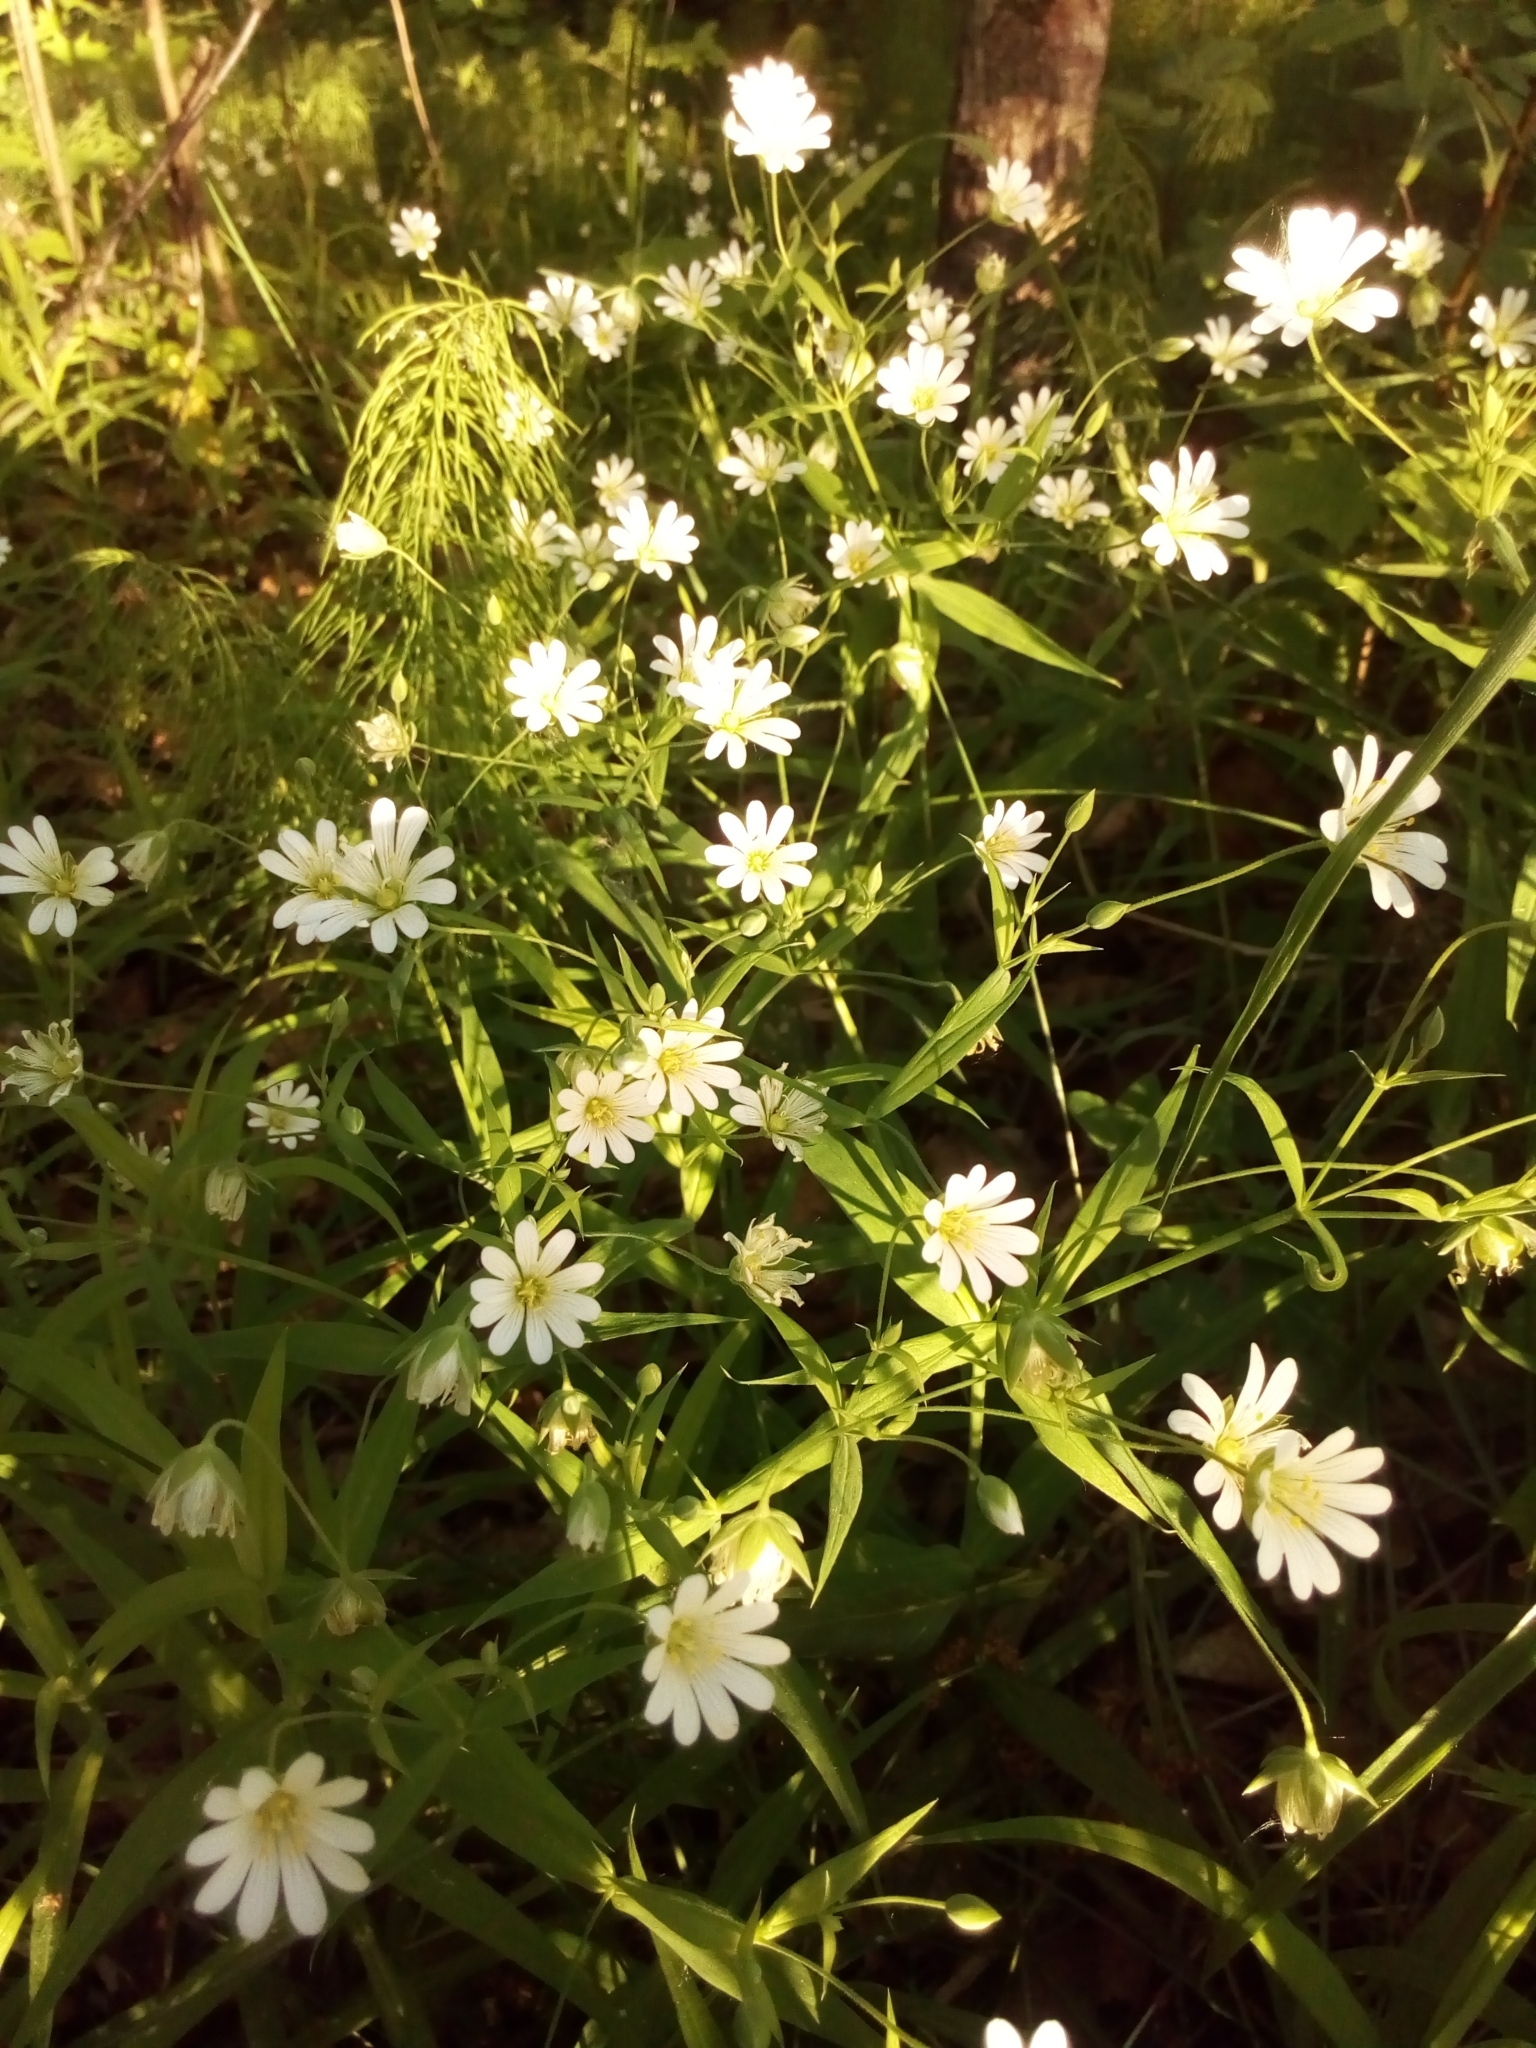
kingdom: Plantae
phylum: Tracheophyta
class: Magnoliopsida
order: Caryophyllales
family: Caryophyllaceae
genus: Rabelera
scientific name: Rabelera holostea
